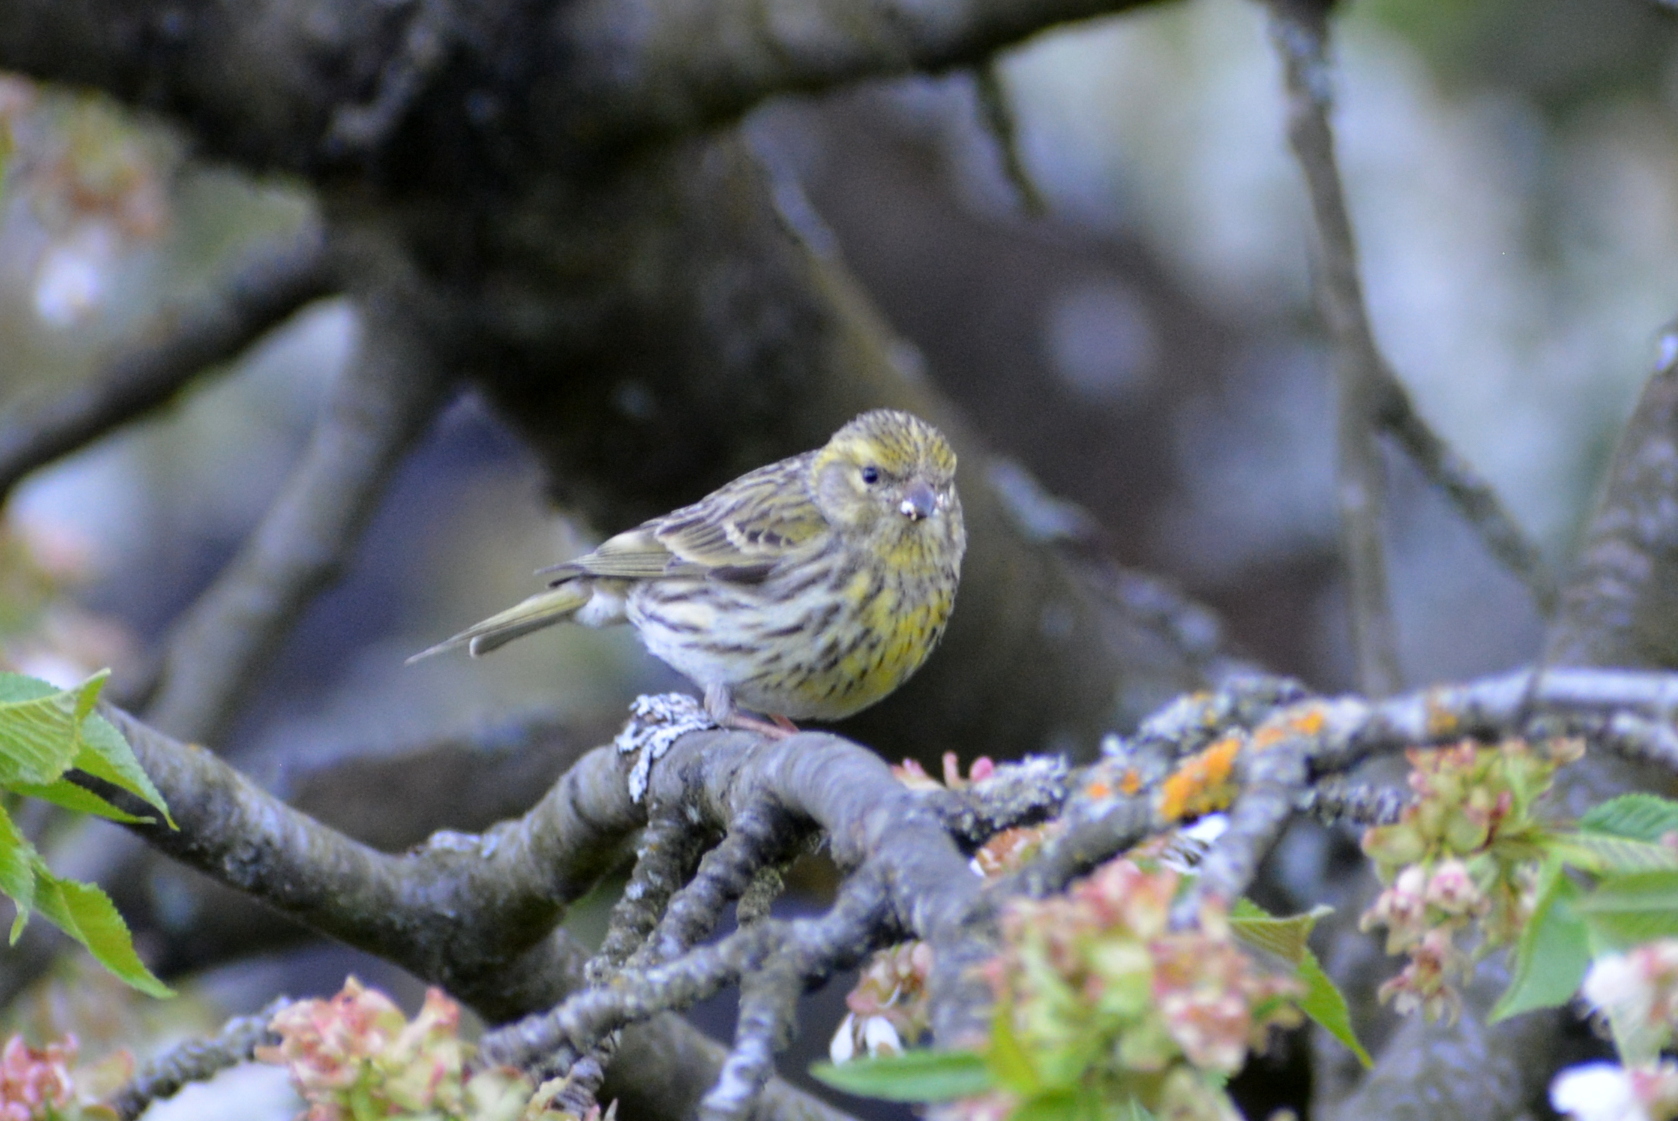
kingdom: Animalia
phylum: Chordata
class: Aves
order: Passeriformes
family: Fringillidae
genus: Serinus
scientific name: Serinus serinus
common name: European serin
